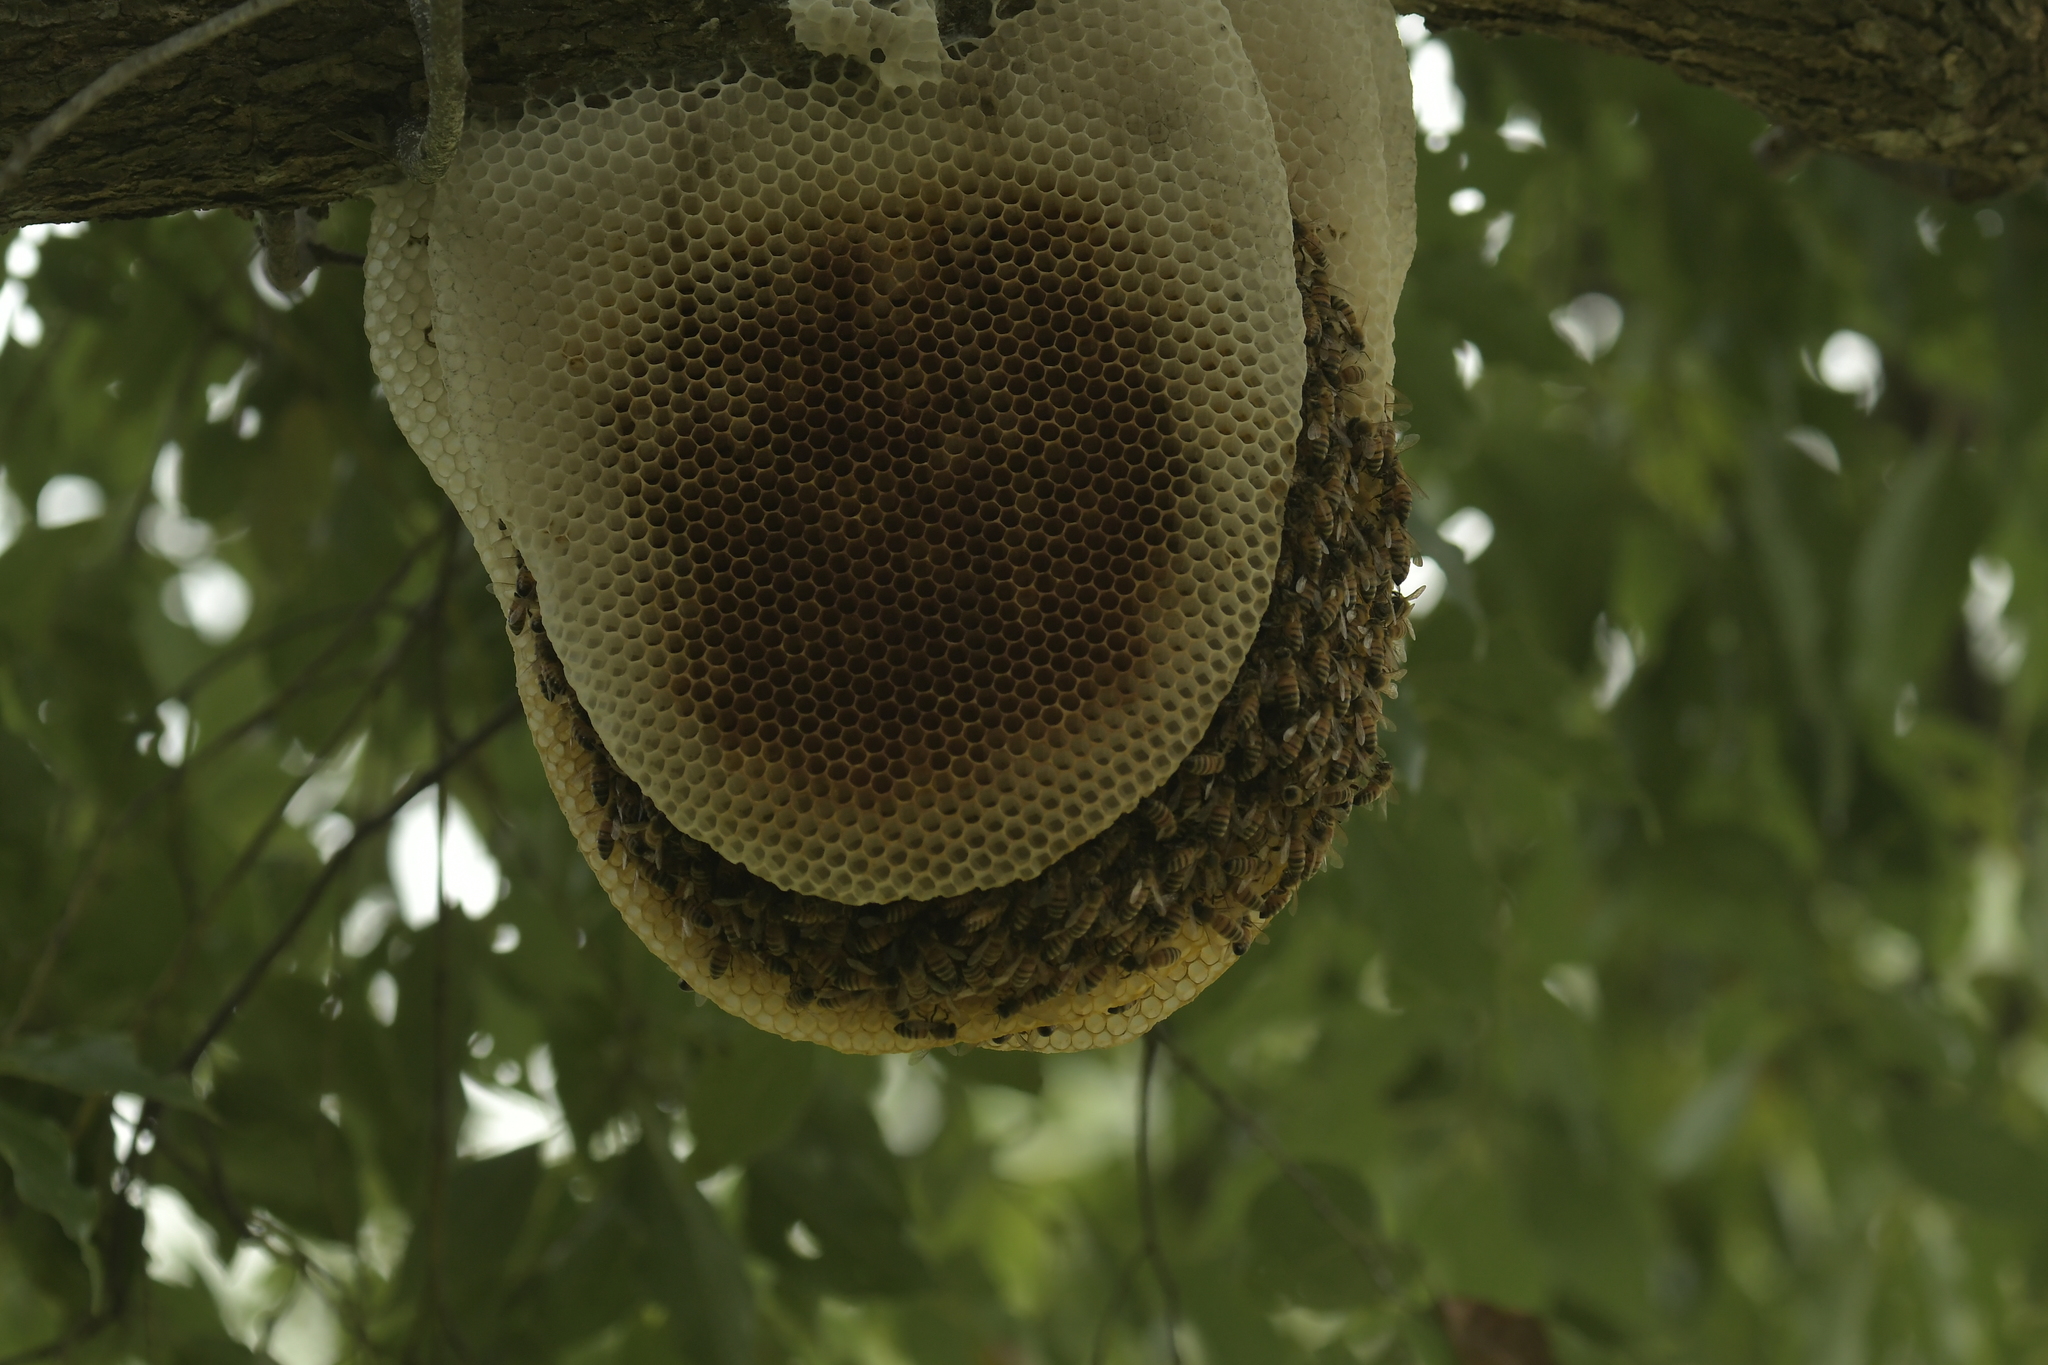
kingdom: Animalia
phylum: Arthropoda
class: Insecta
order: Hymenoptera
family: Apidae
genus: Apis
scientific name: Apis mellifera
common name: Honey bee
